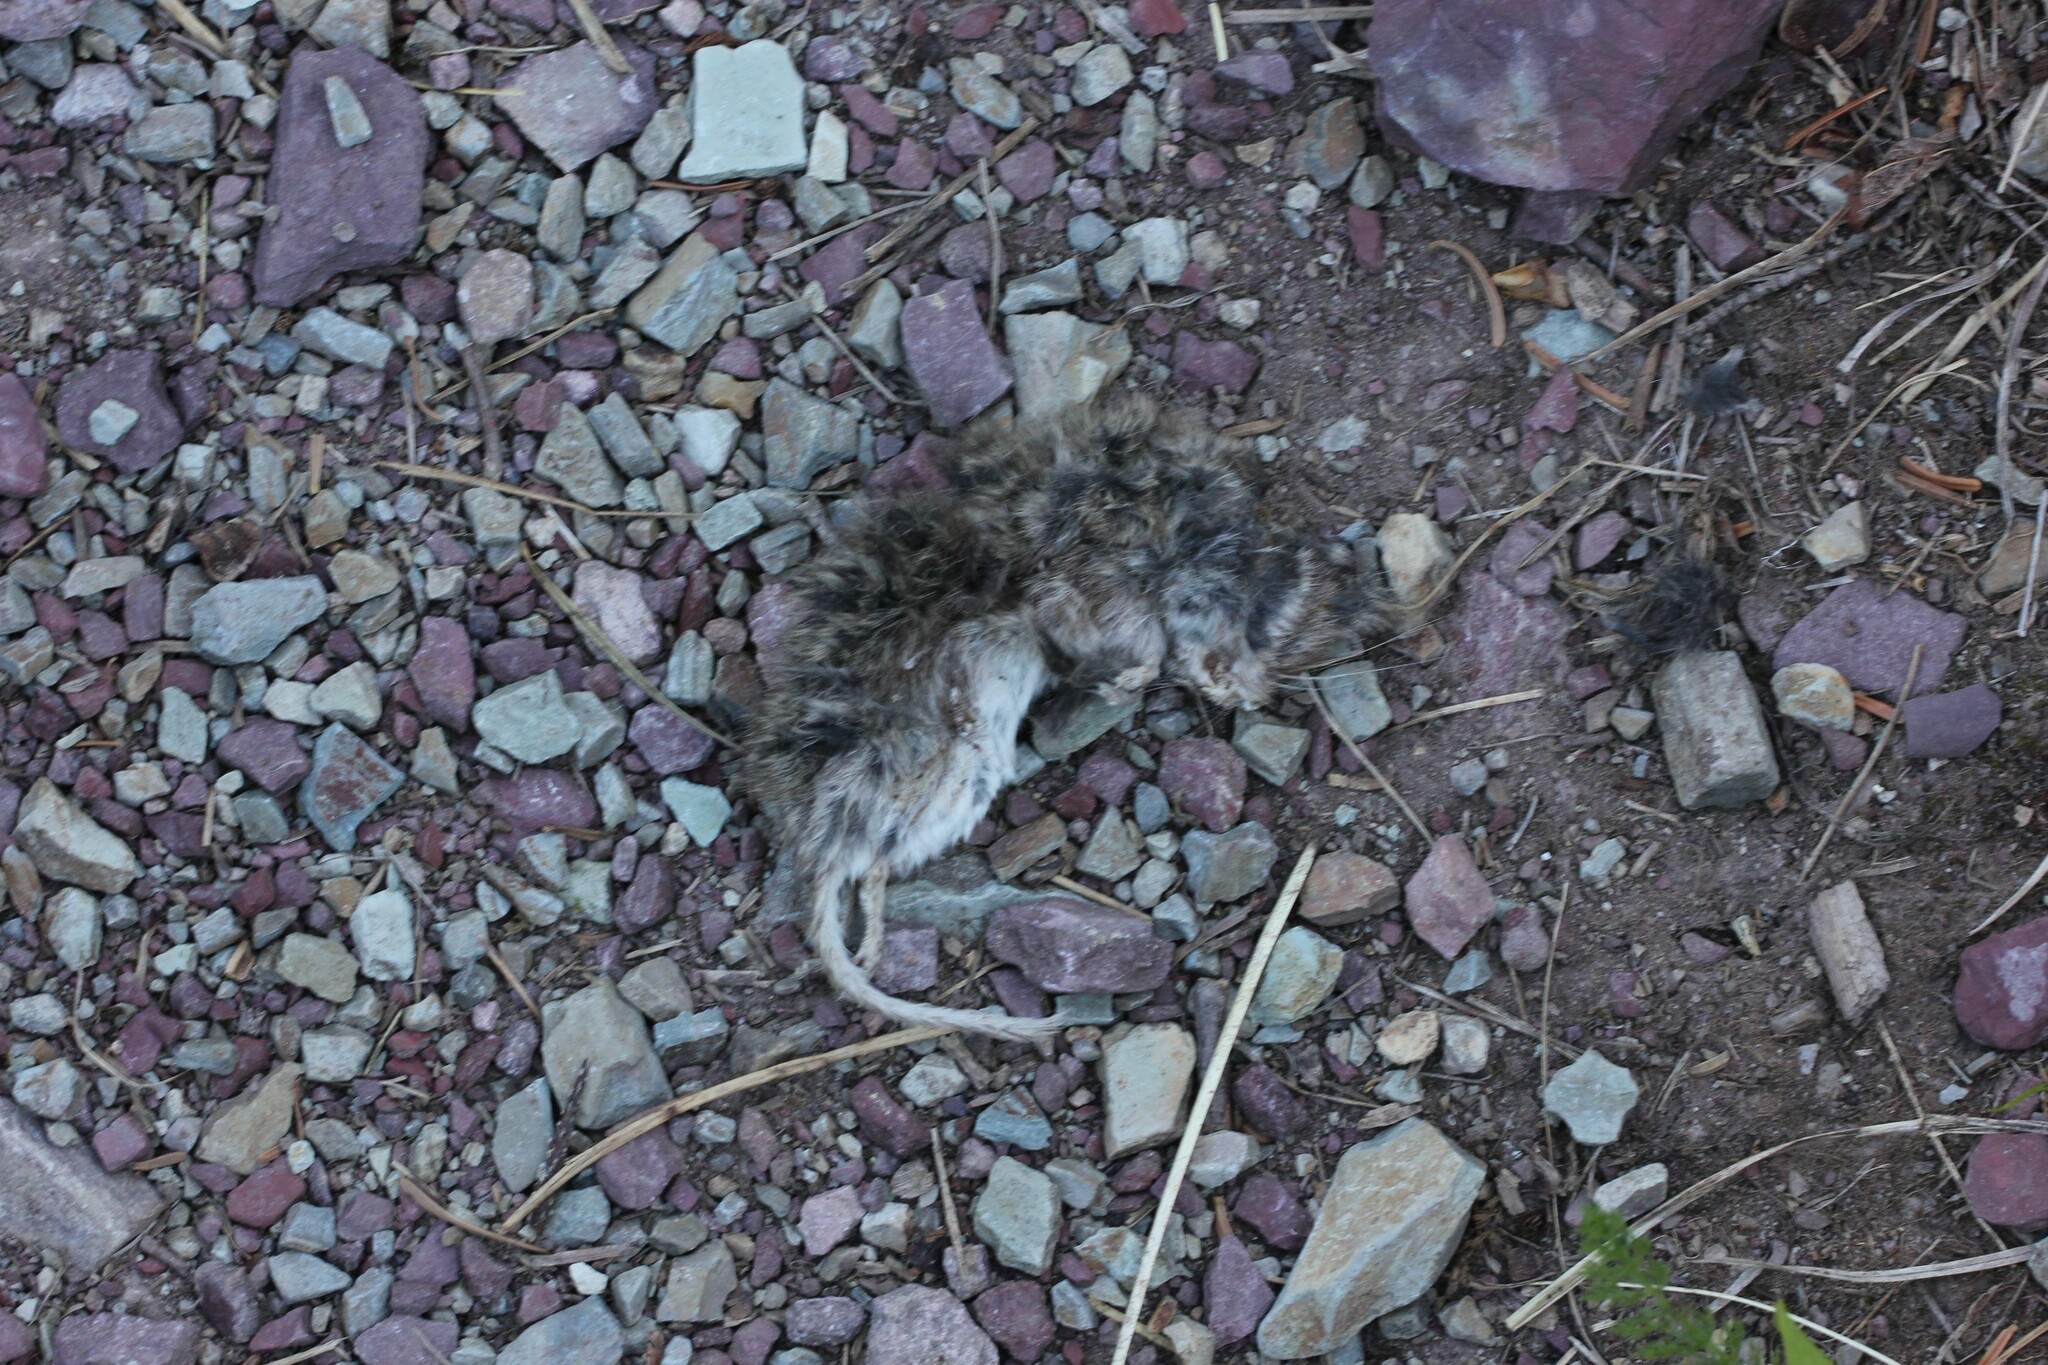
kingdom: Animalia
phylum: Chordata
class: Mammalia
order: Rodentia
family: Cricetidae
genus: Peromyscus
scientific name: Peromyscus maniculatus
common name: Deer mouse
